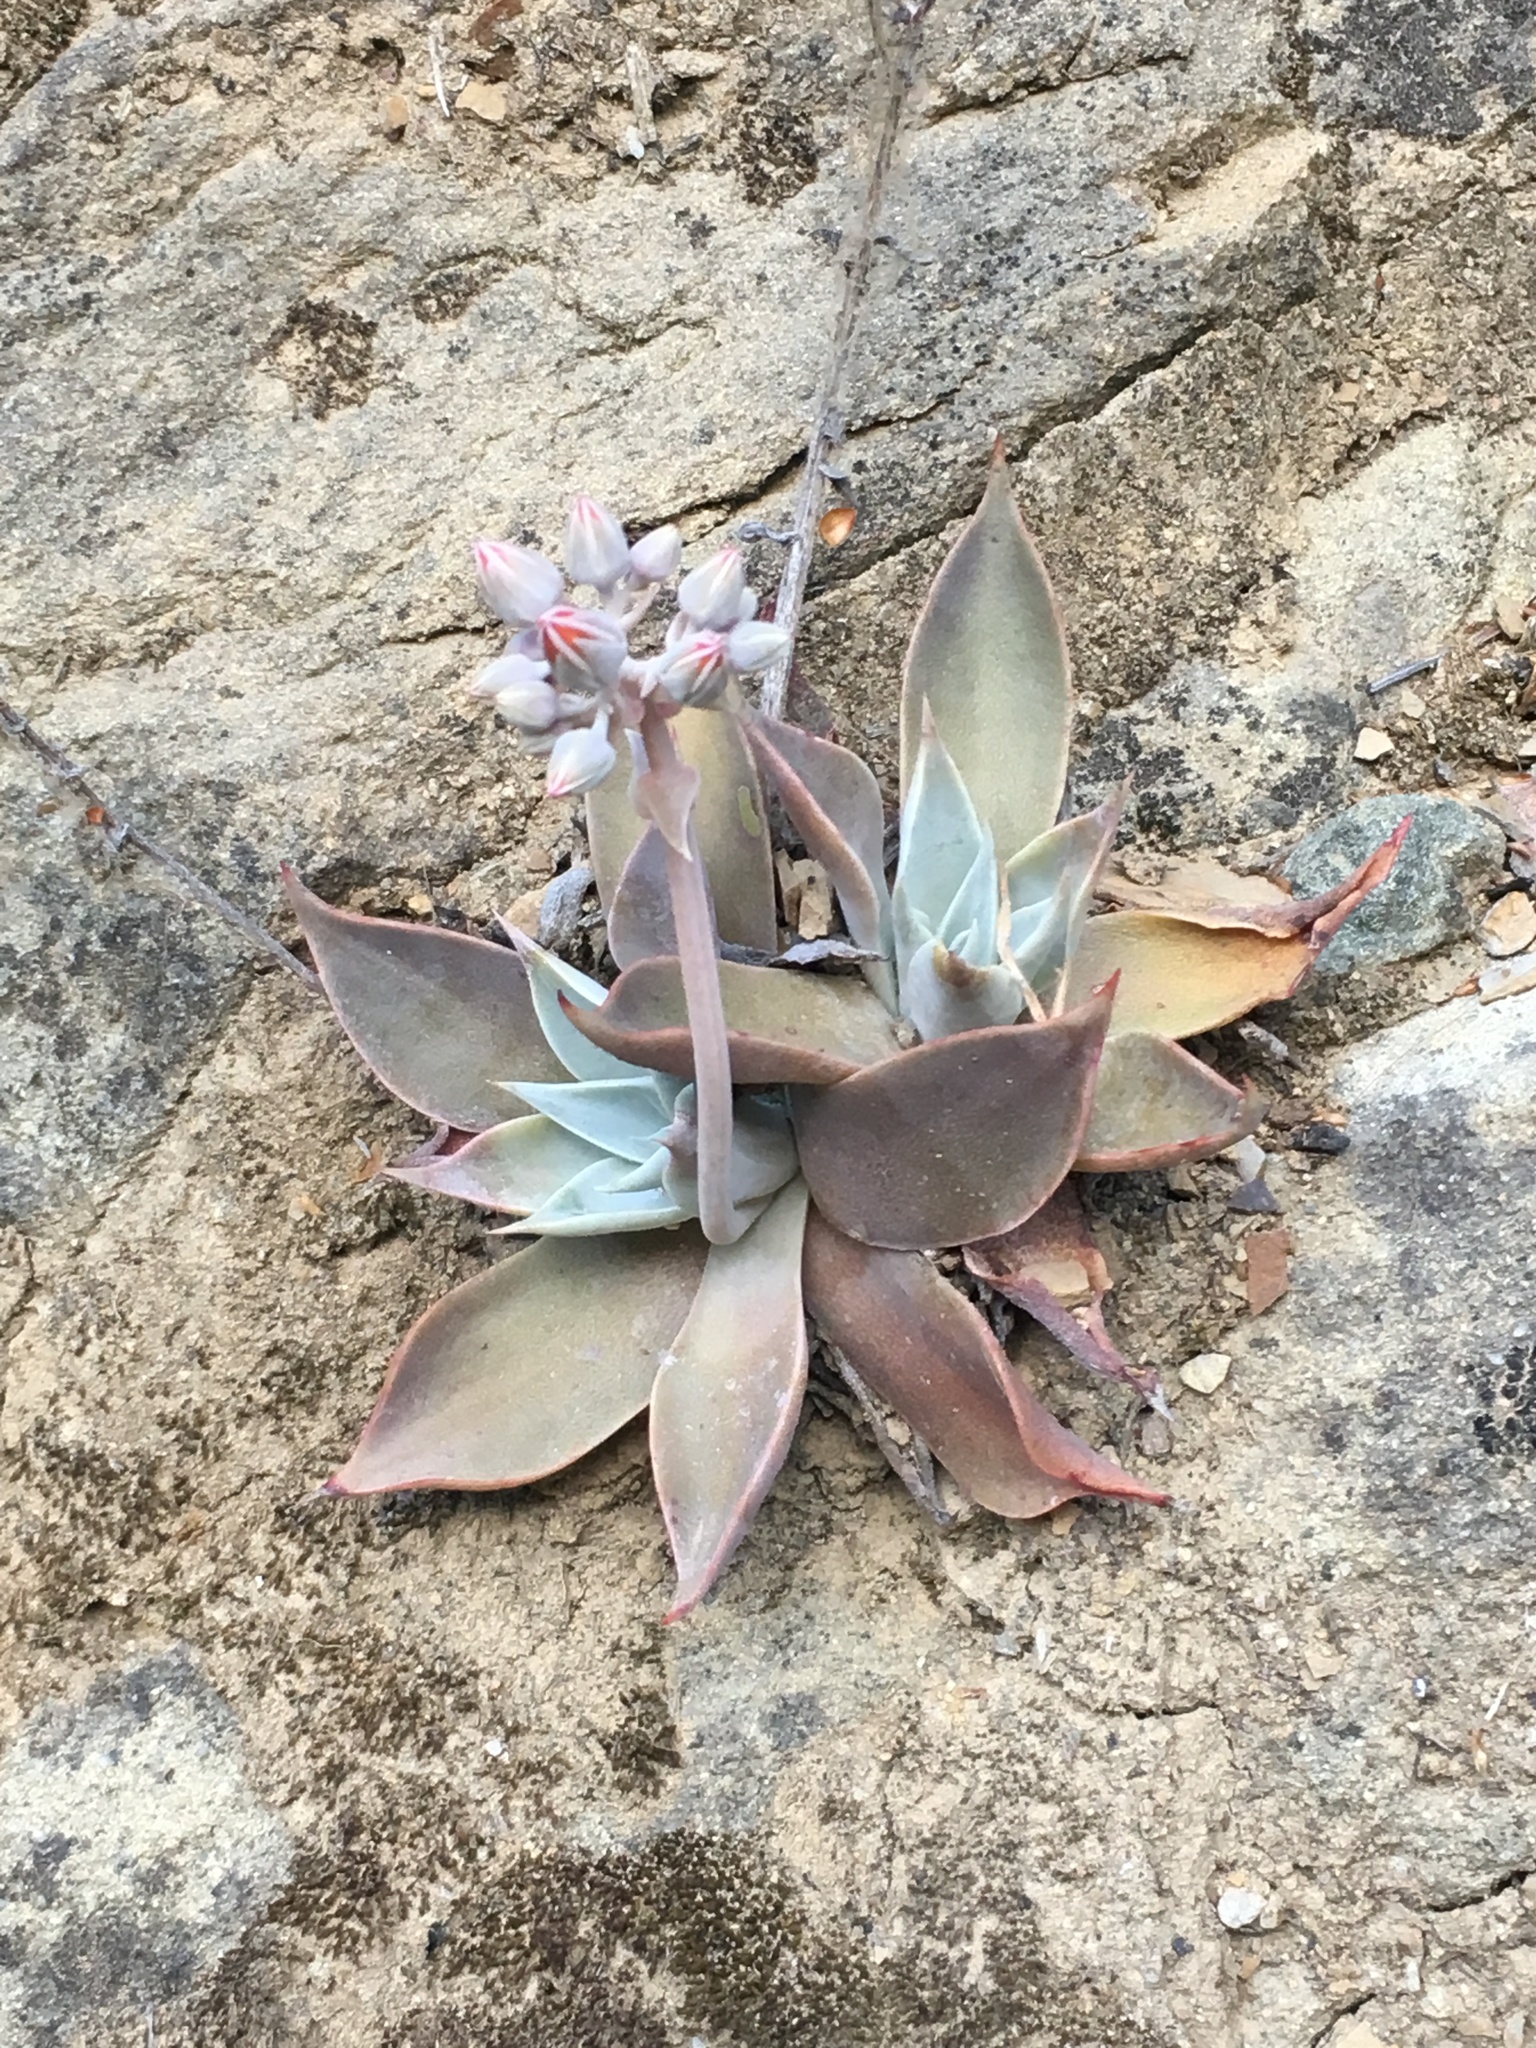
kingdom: Plantae
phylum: Tracheophyta
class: Magnoliopsida
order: Saxifragales
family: Crassulaceae
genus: Dudleya
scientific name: Dudleya cymosa
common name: Canyon dudleya
